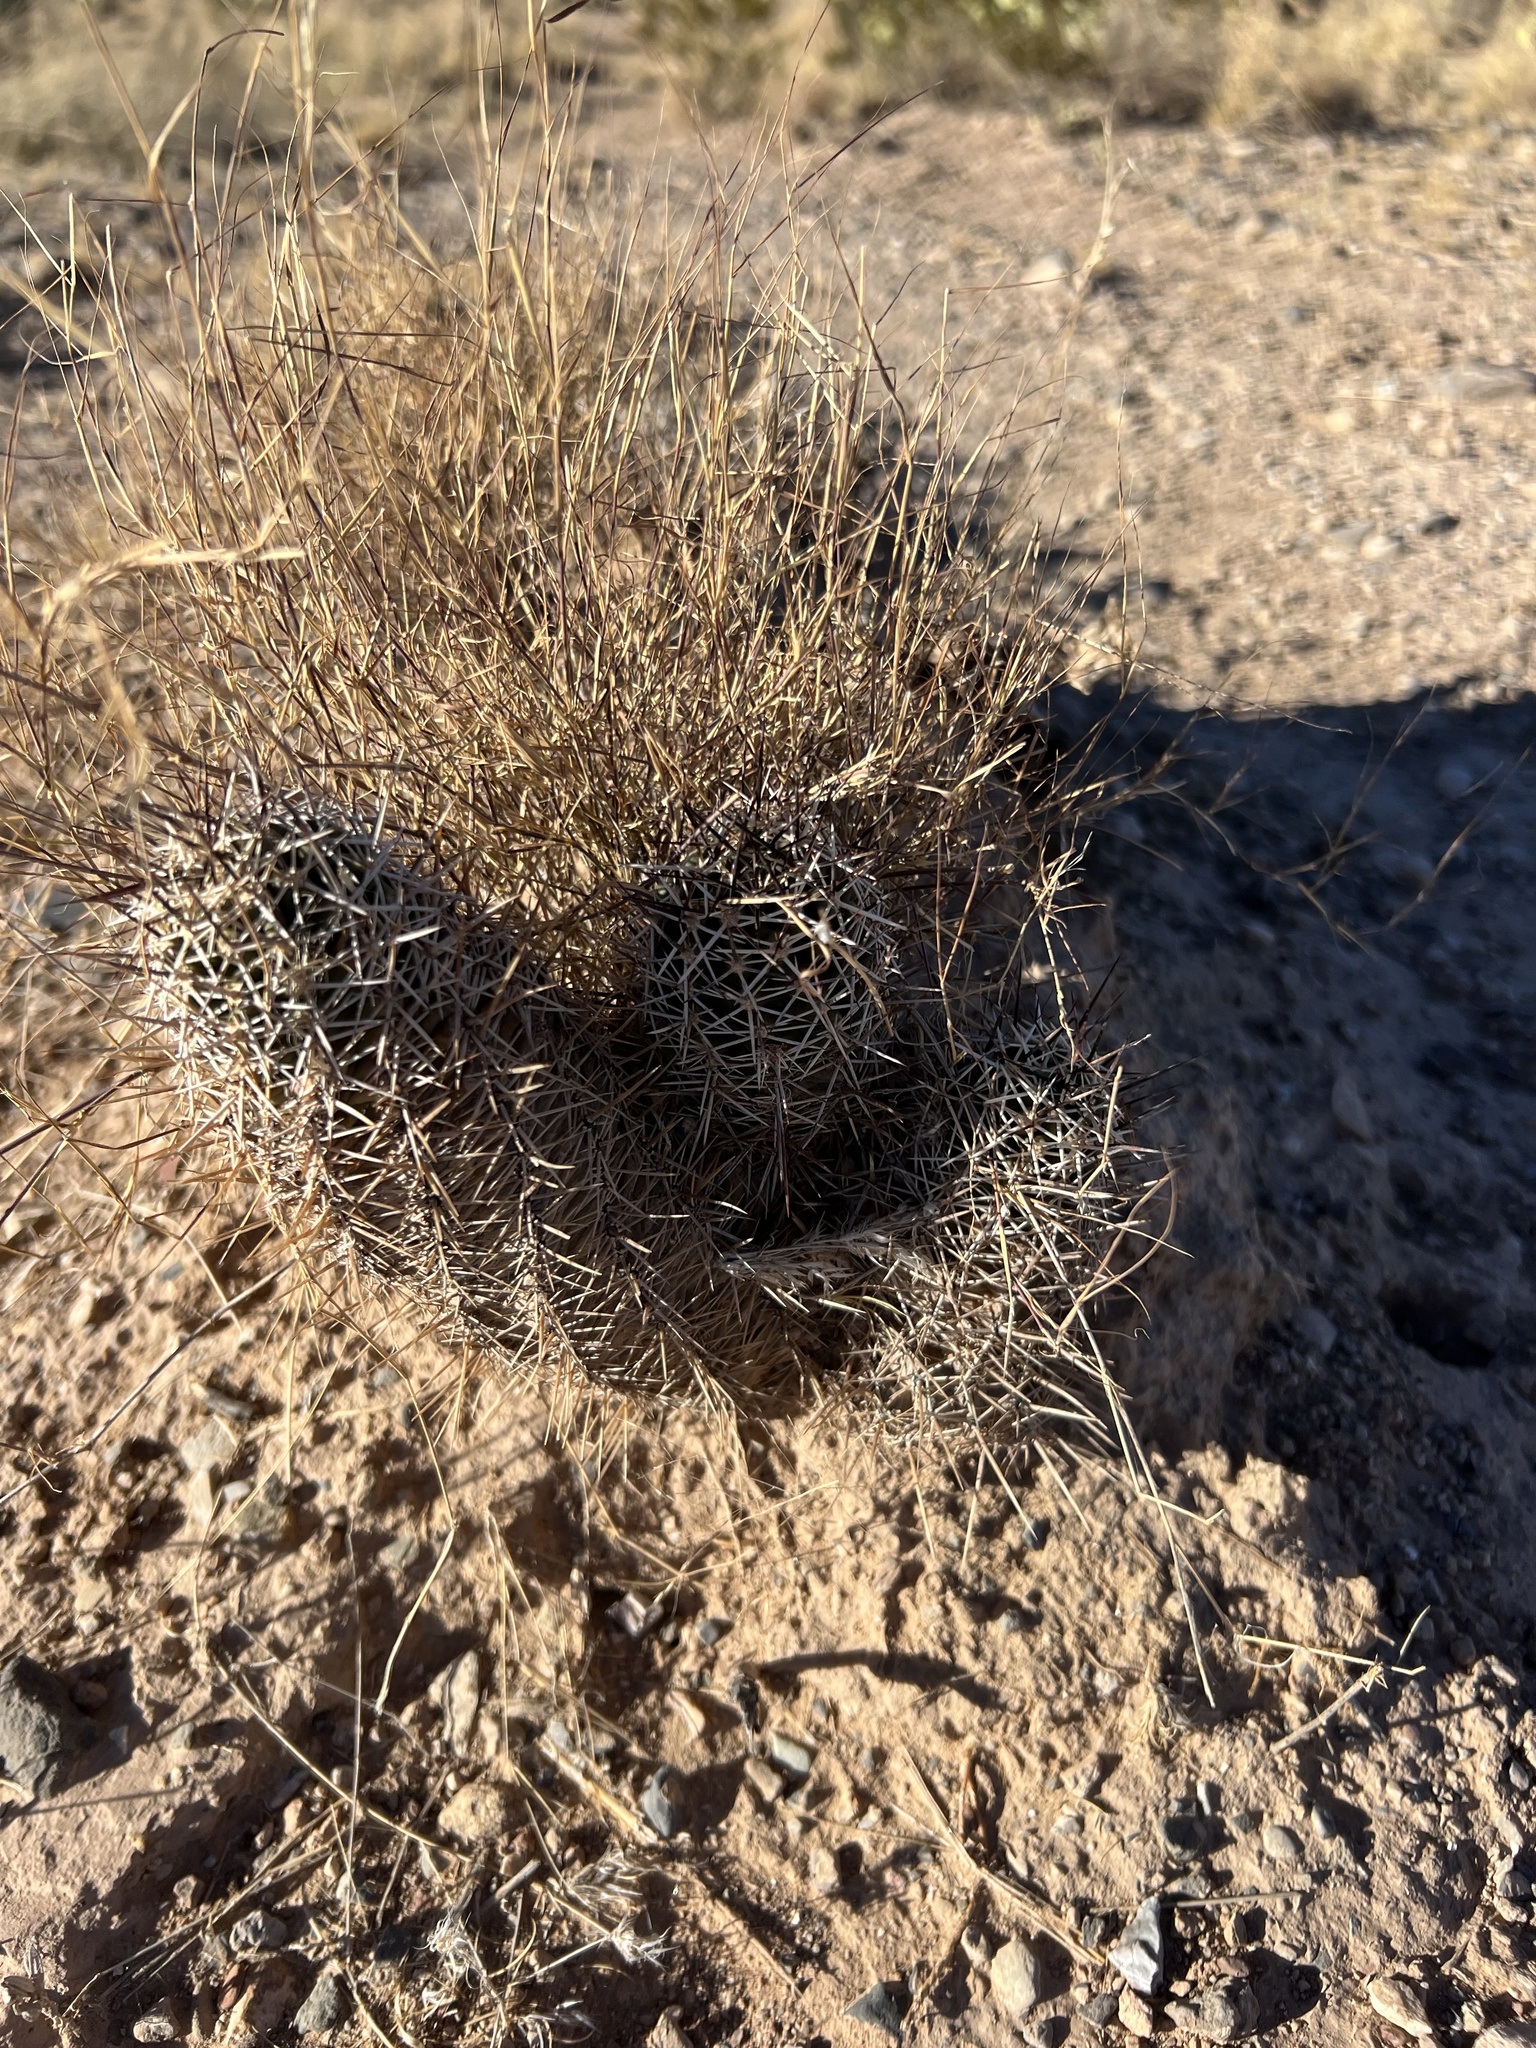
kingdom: Plantae
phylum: Tracheophyta
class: Magnoliopsida
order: Caryophyllales
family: Cactaceae
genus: Echinocereus
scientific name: Echinocereus fendleri
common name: Fendler's hedgehog cactus
